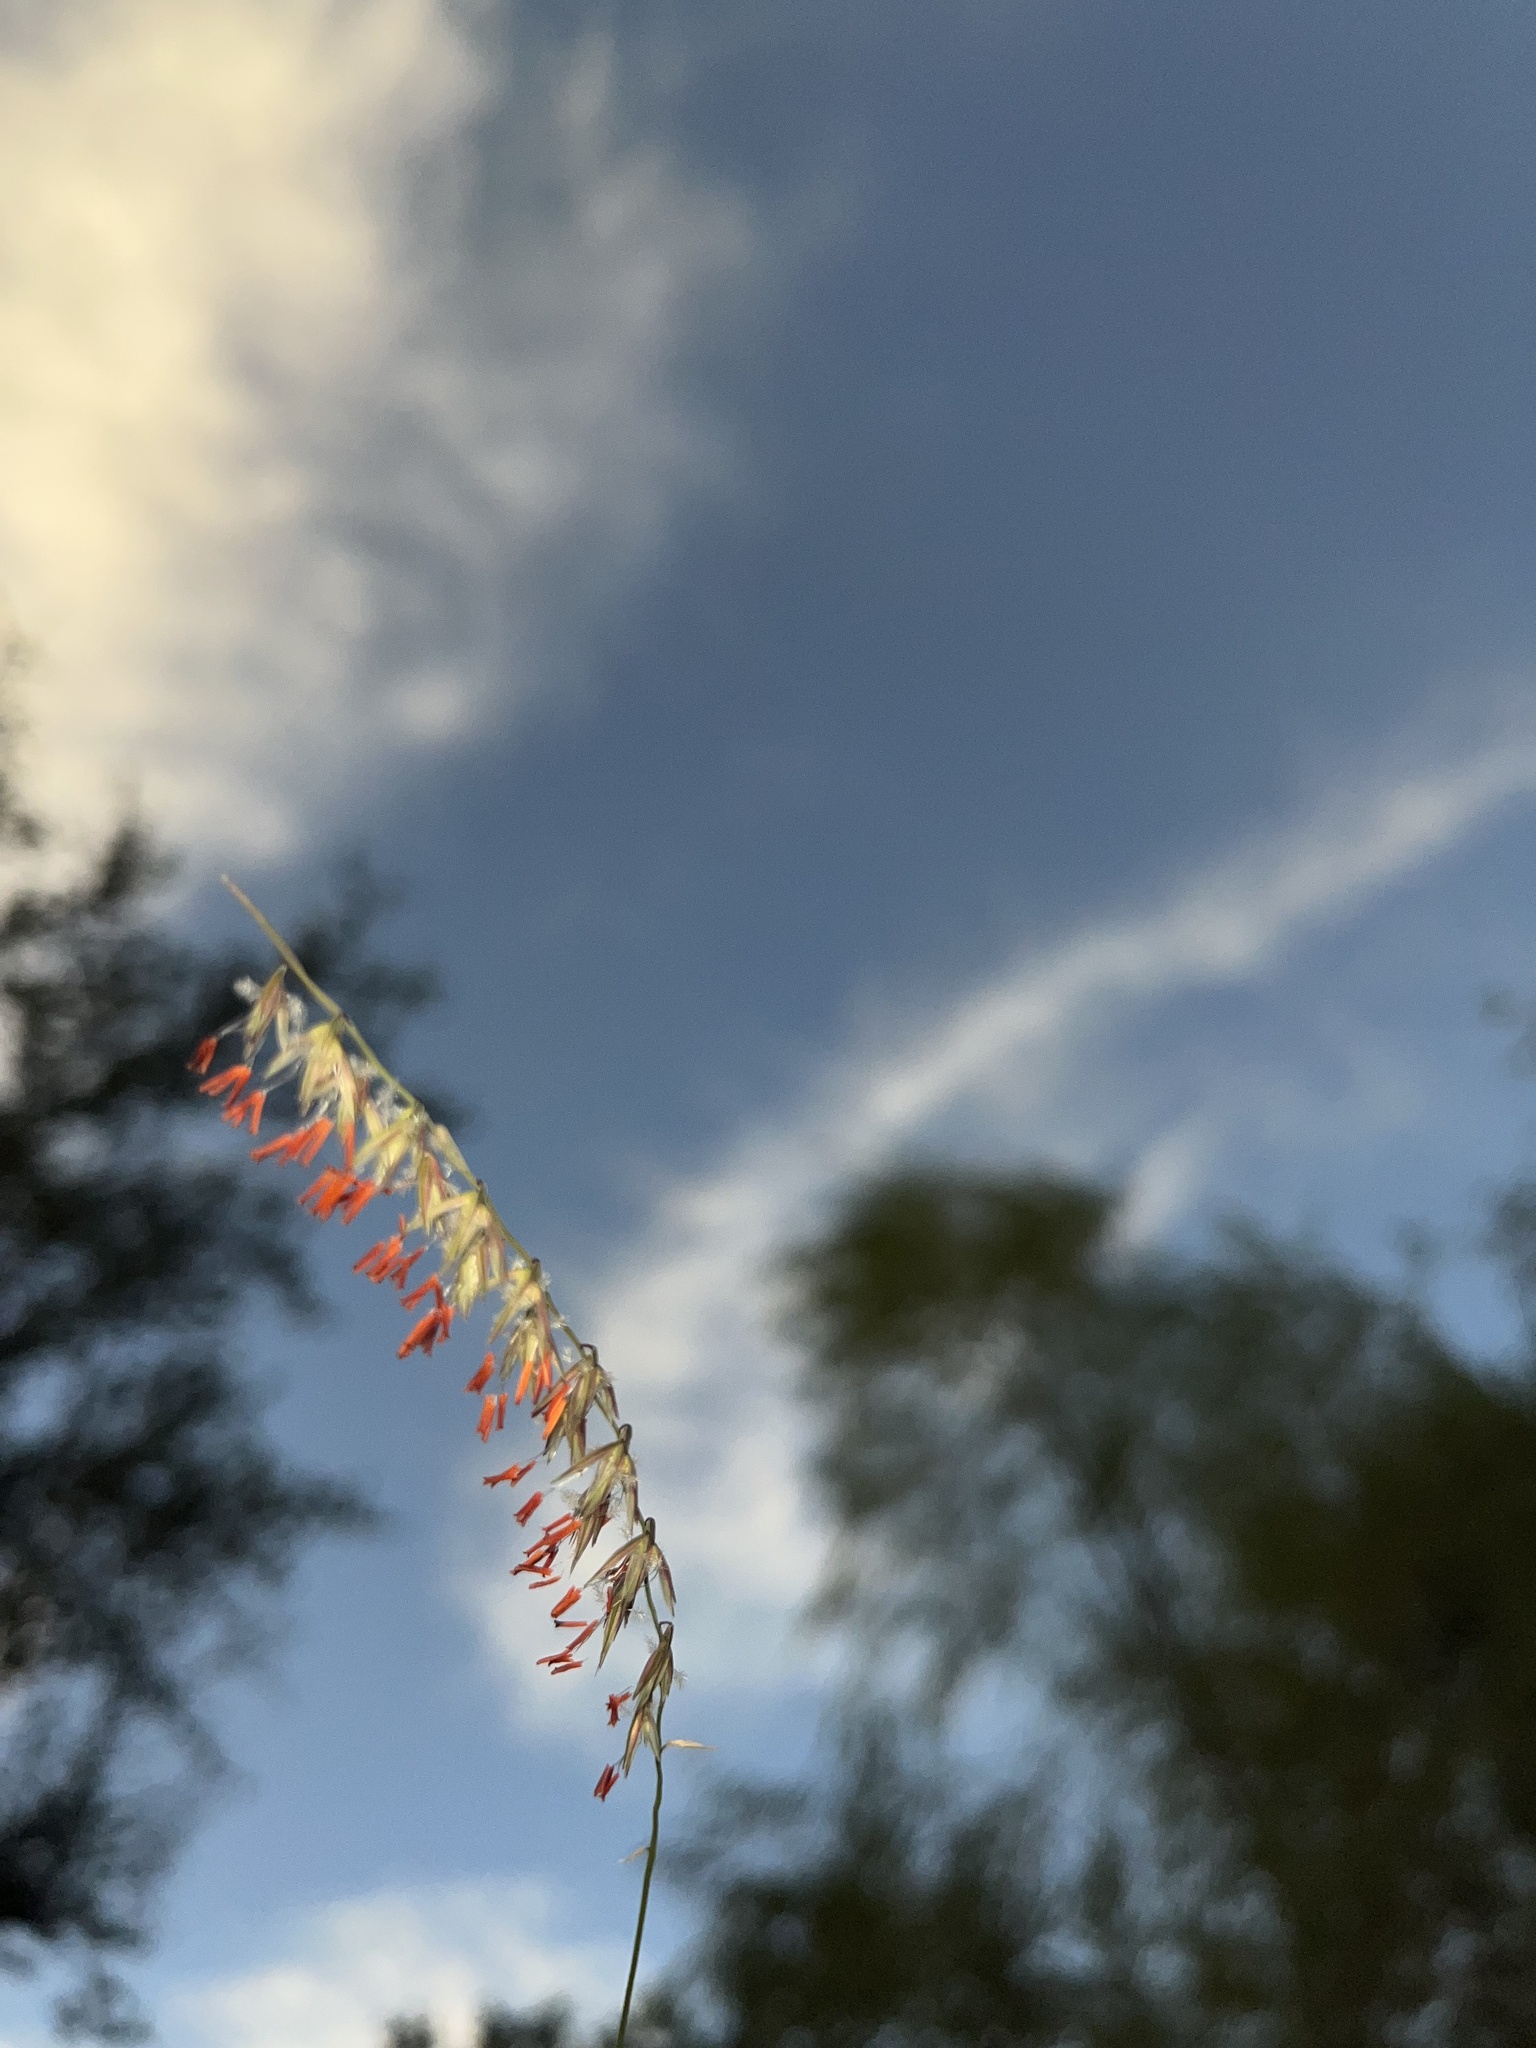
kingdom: Plantae
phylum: Tracheophyta
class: Liliopsida
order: Poales
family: Poaceae
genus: Bouteloua
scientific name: Bouteloua curtipendula
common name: Side-oats grama
